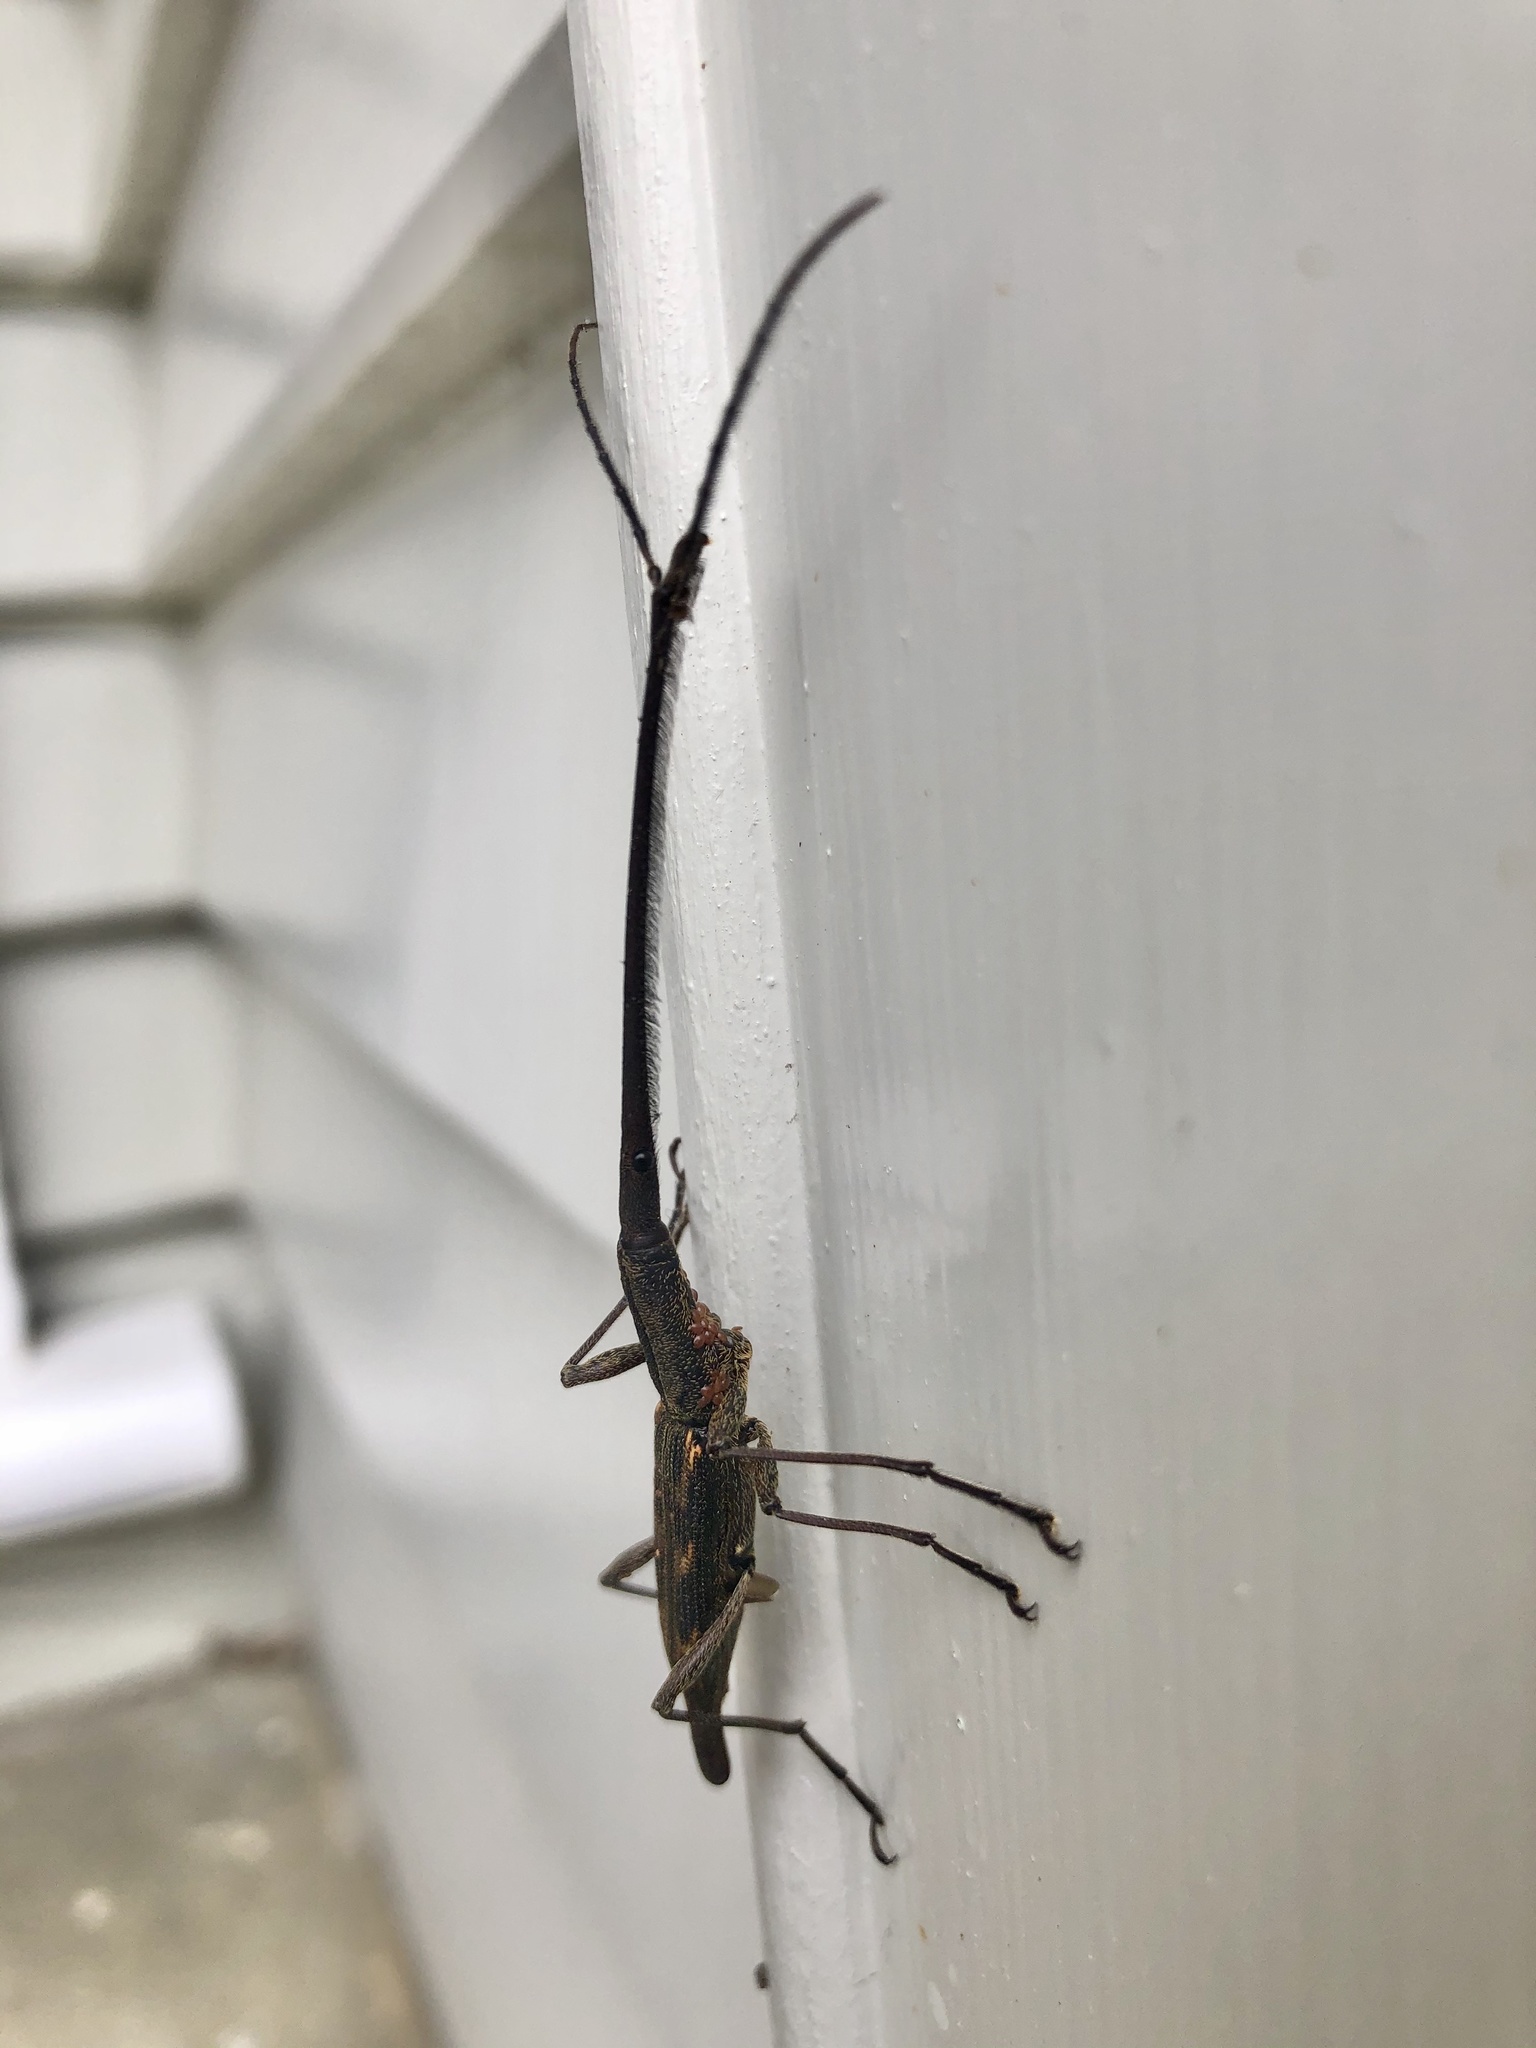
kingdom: Animalia
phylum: Arthropoda
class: Insecta
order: Coleoptera
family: Brentidae
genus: Lasiorhynchus
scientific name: Lasiorhynchus barbicornis
